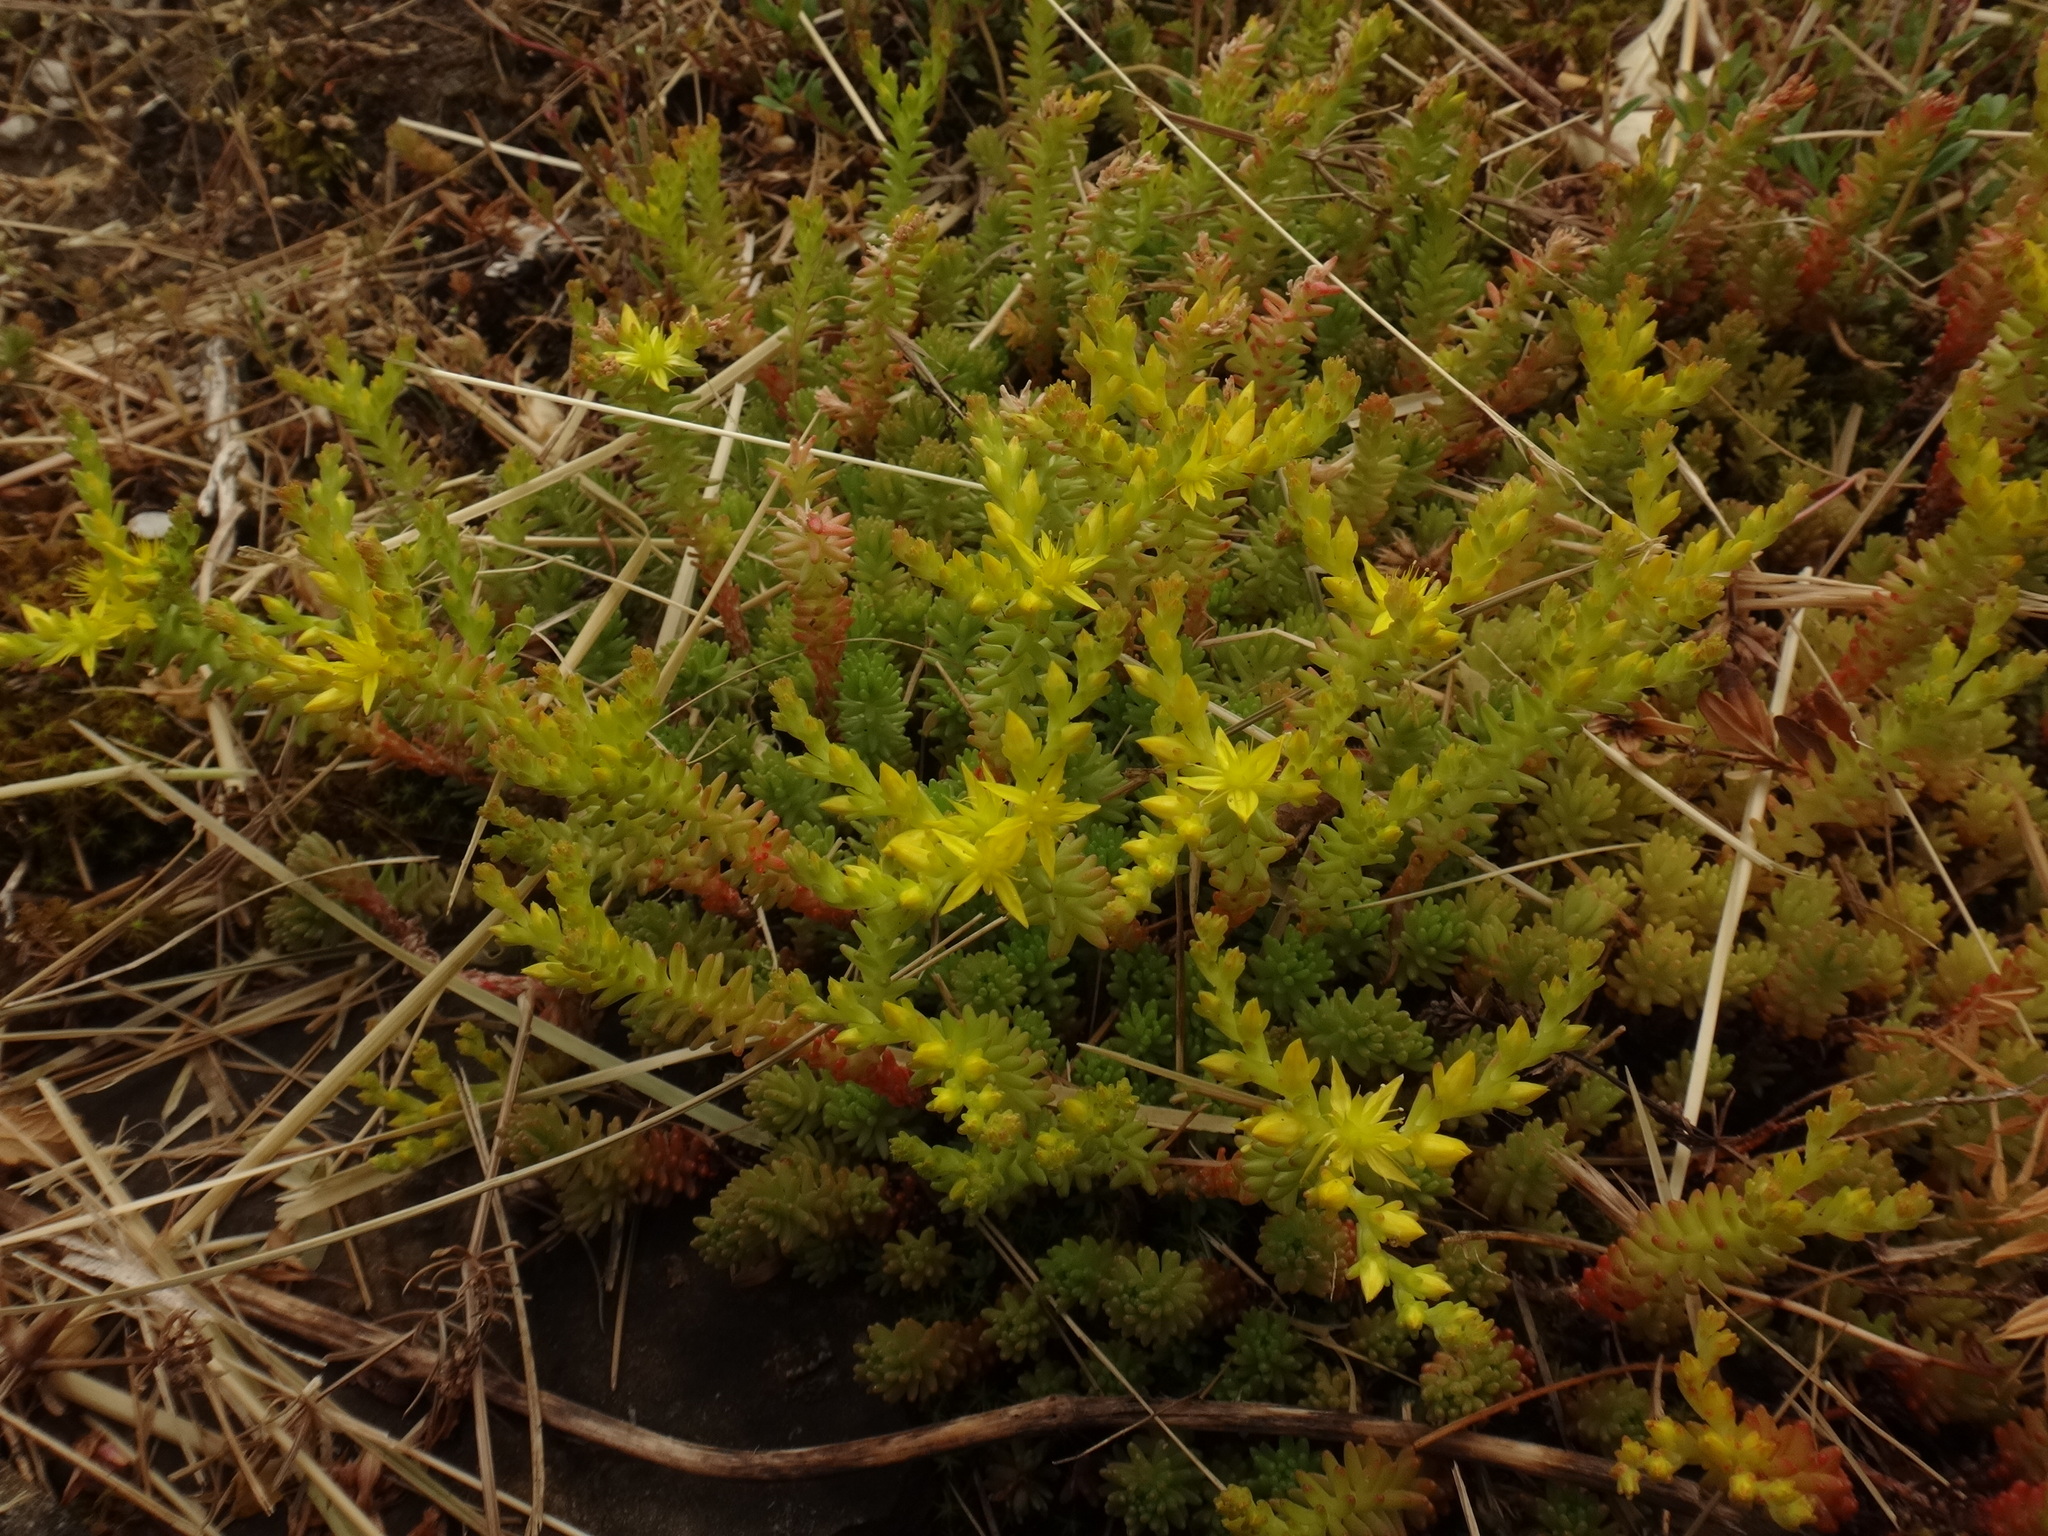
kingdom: Plantae
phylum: Tracheophyta
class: Magnoliopsida
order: Saxifragales
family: Crassulaceae
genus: Sedum
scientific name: Sedum sexangulare
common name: Tasteless stonecrop
